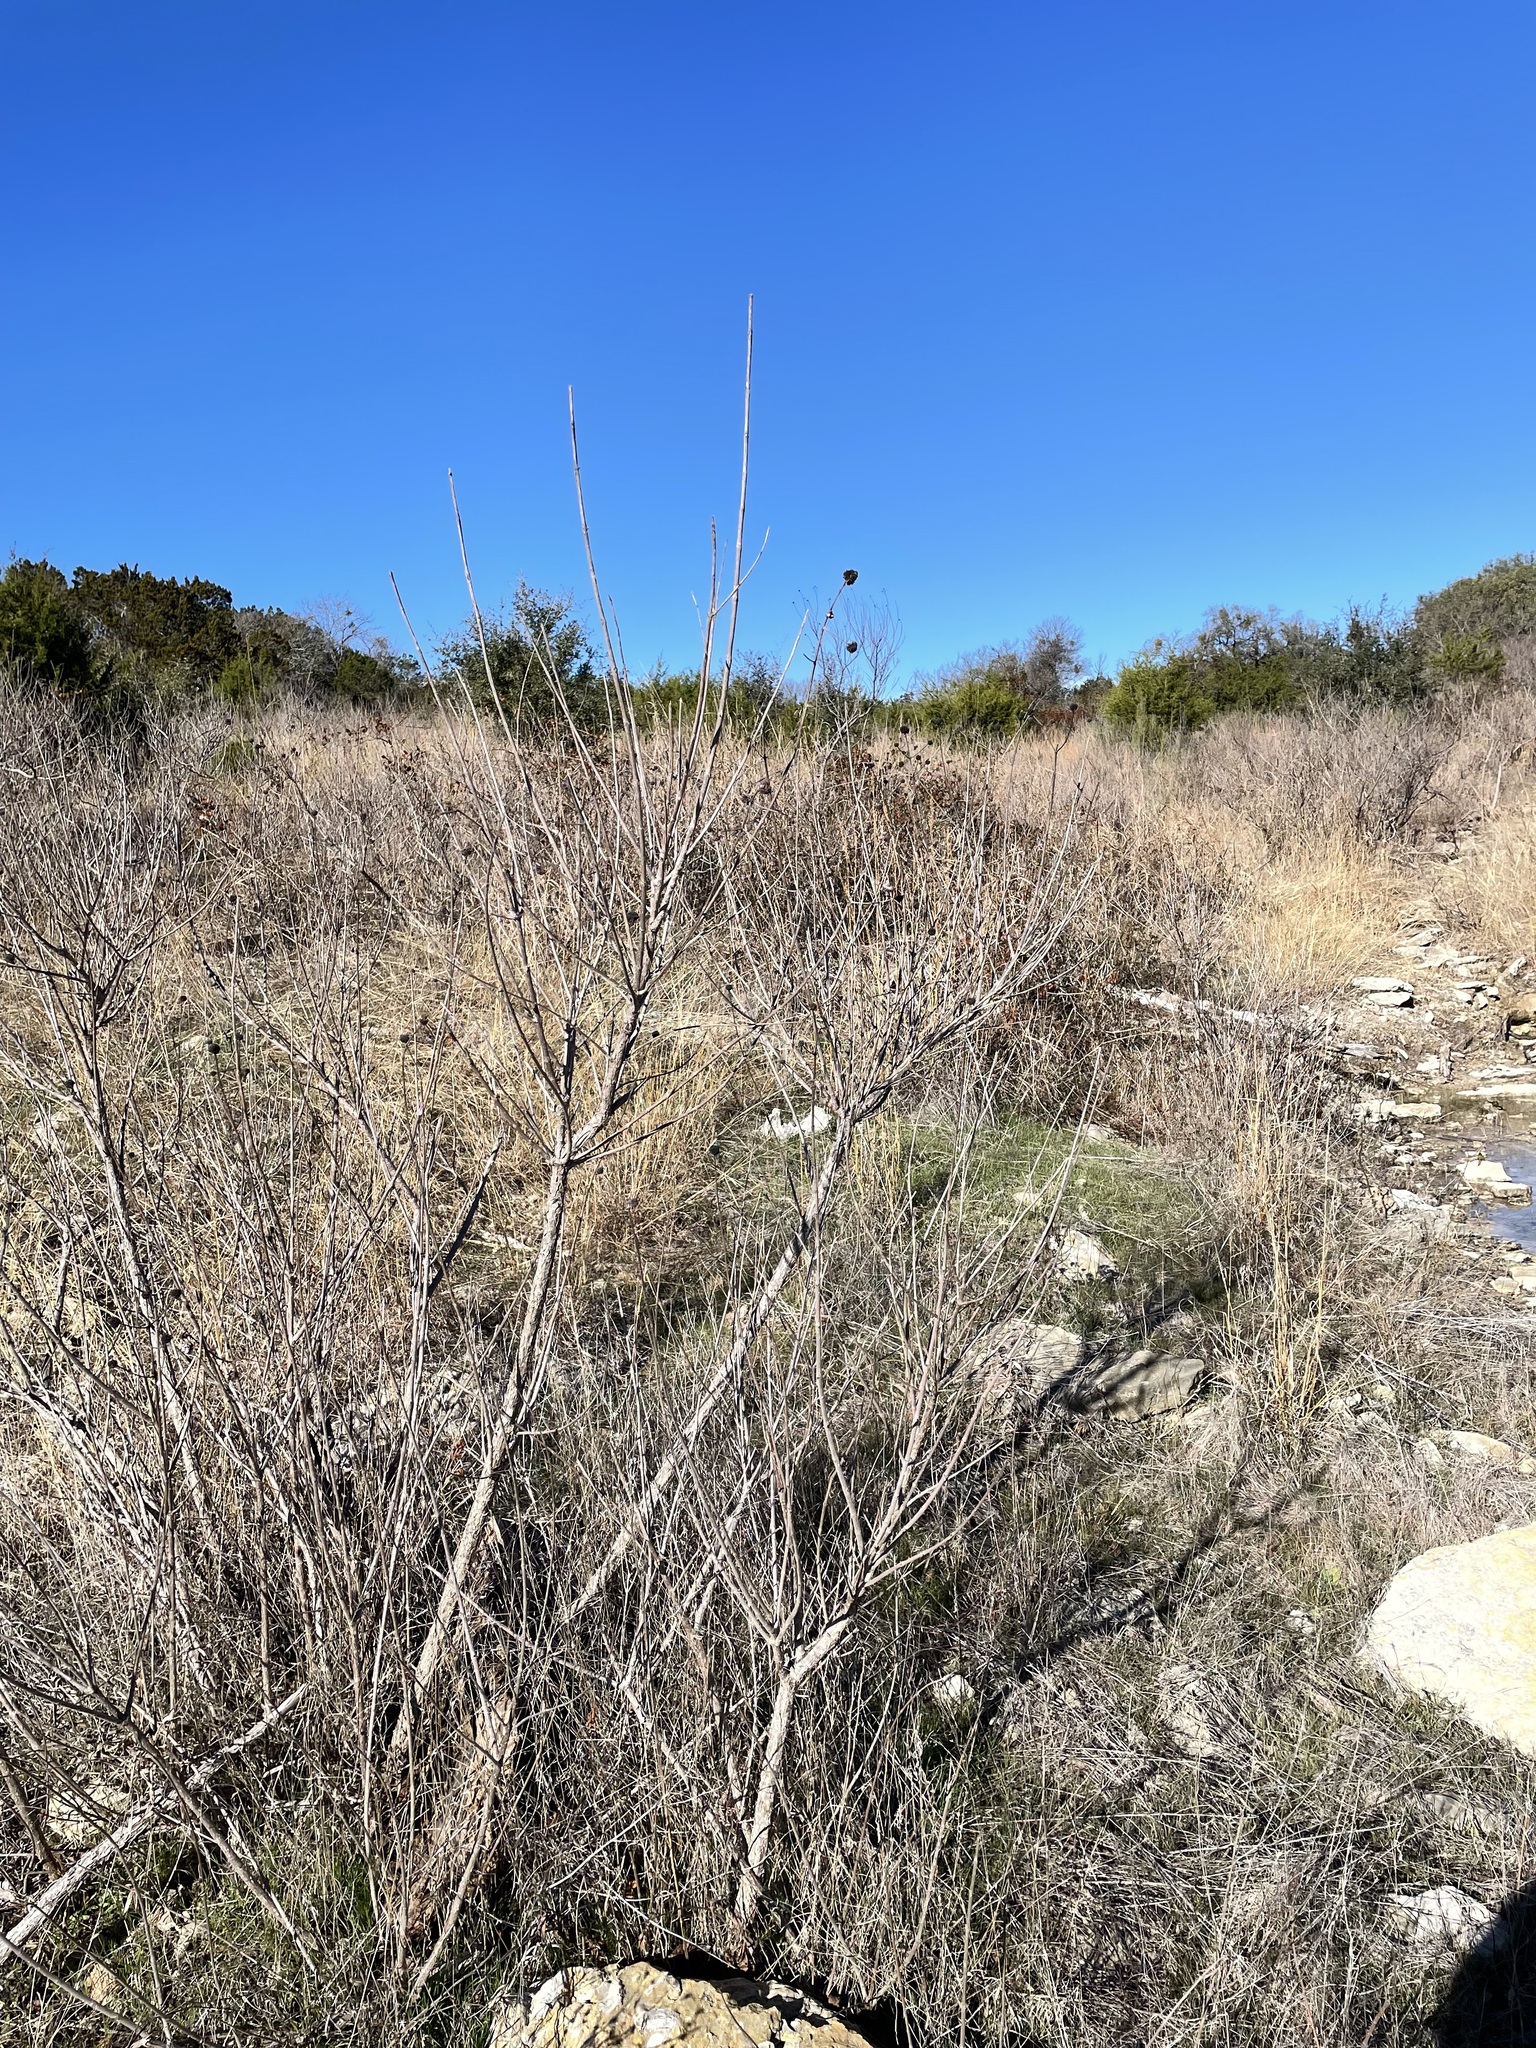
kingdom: Plantae
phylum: Tracheophyta
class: Magnoliopsida
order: Gentianales
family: Rubiaceae
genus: Cephalanthus
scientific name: Cephalanthus occidentalis
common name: Button-willow
